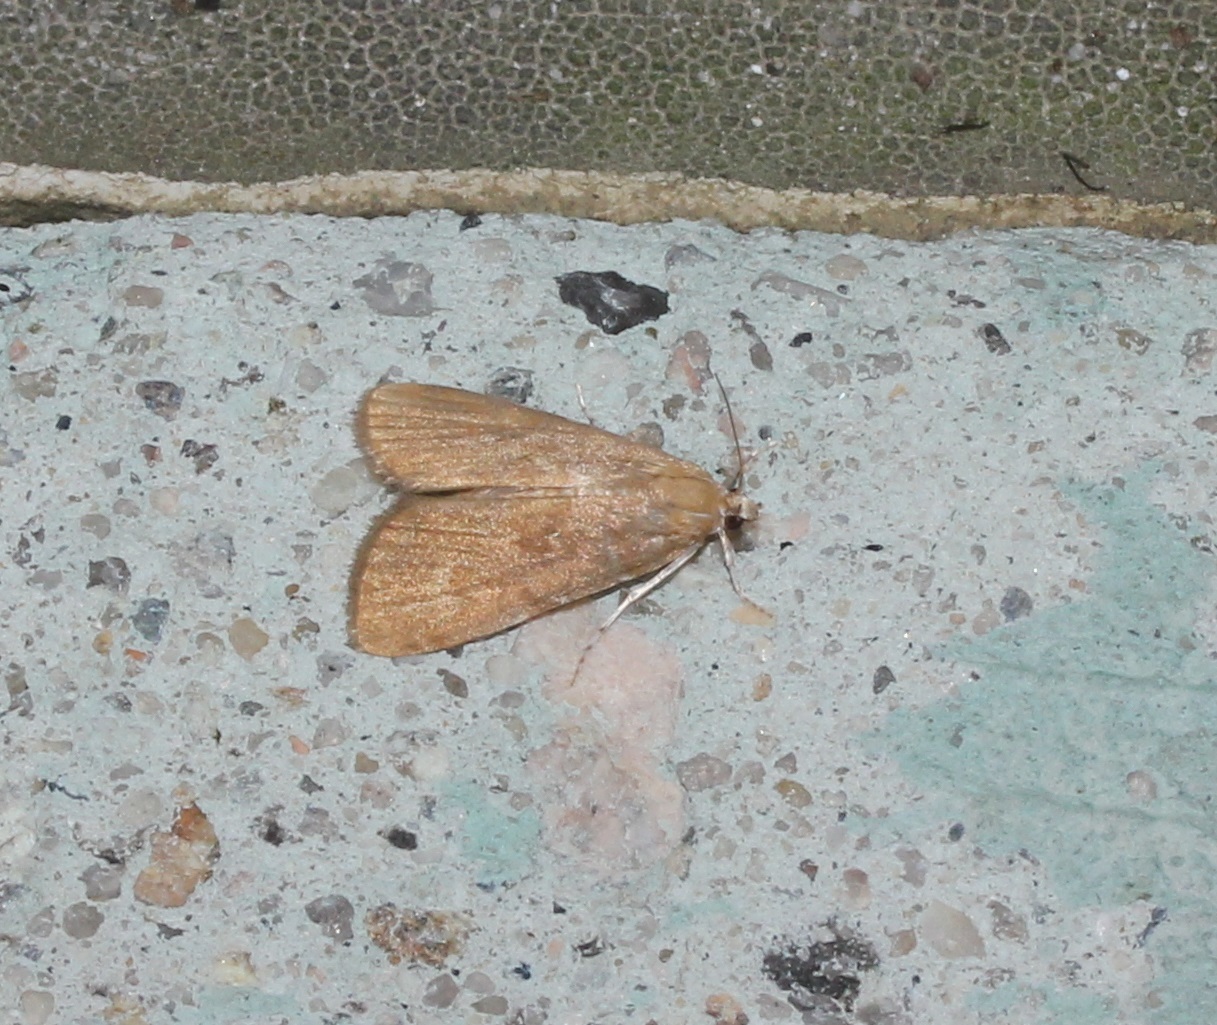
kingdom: Animalia
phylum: Arthropoda
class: Insecta
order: Lepidoptera
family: Crambidae
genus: Elophila
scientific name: Elophila gyralis
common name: Waterlily borer moth
